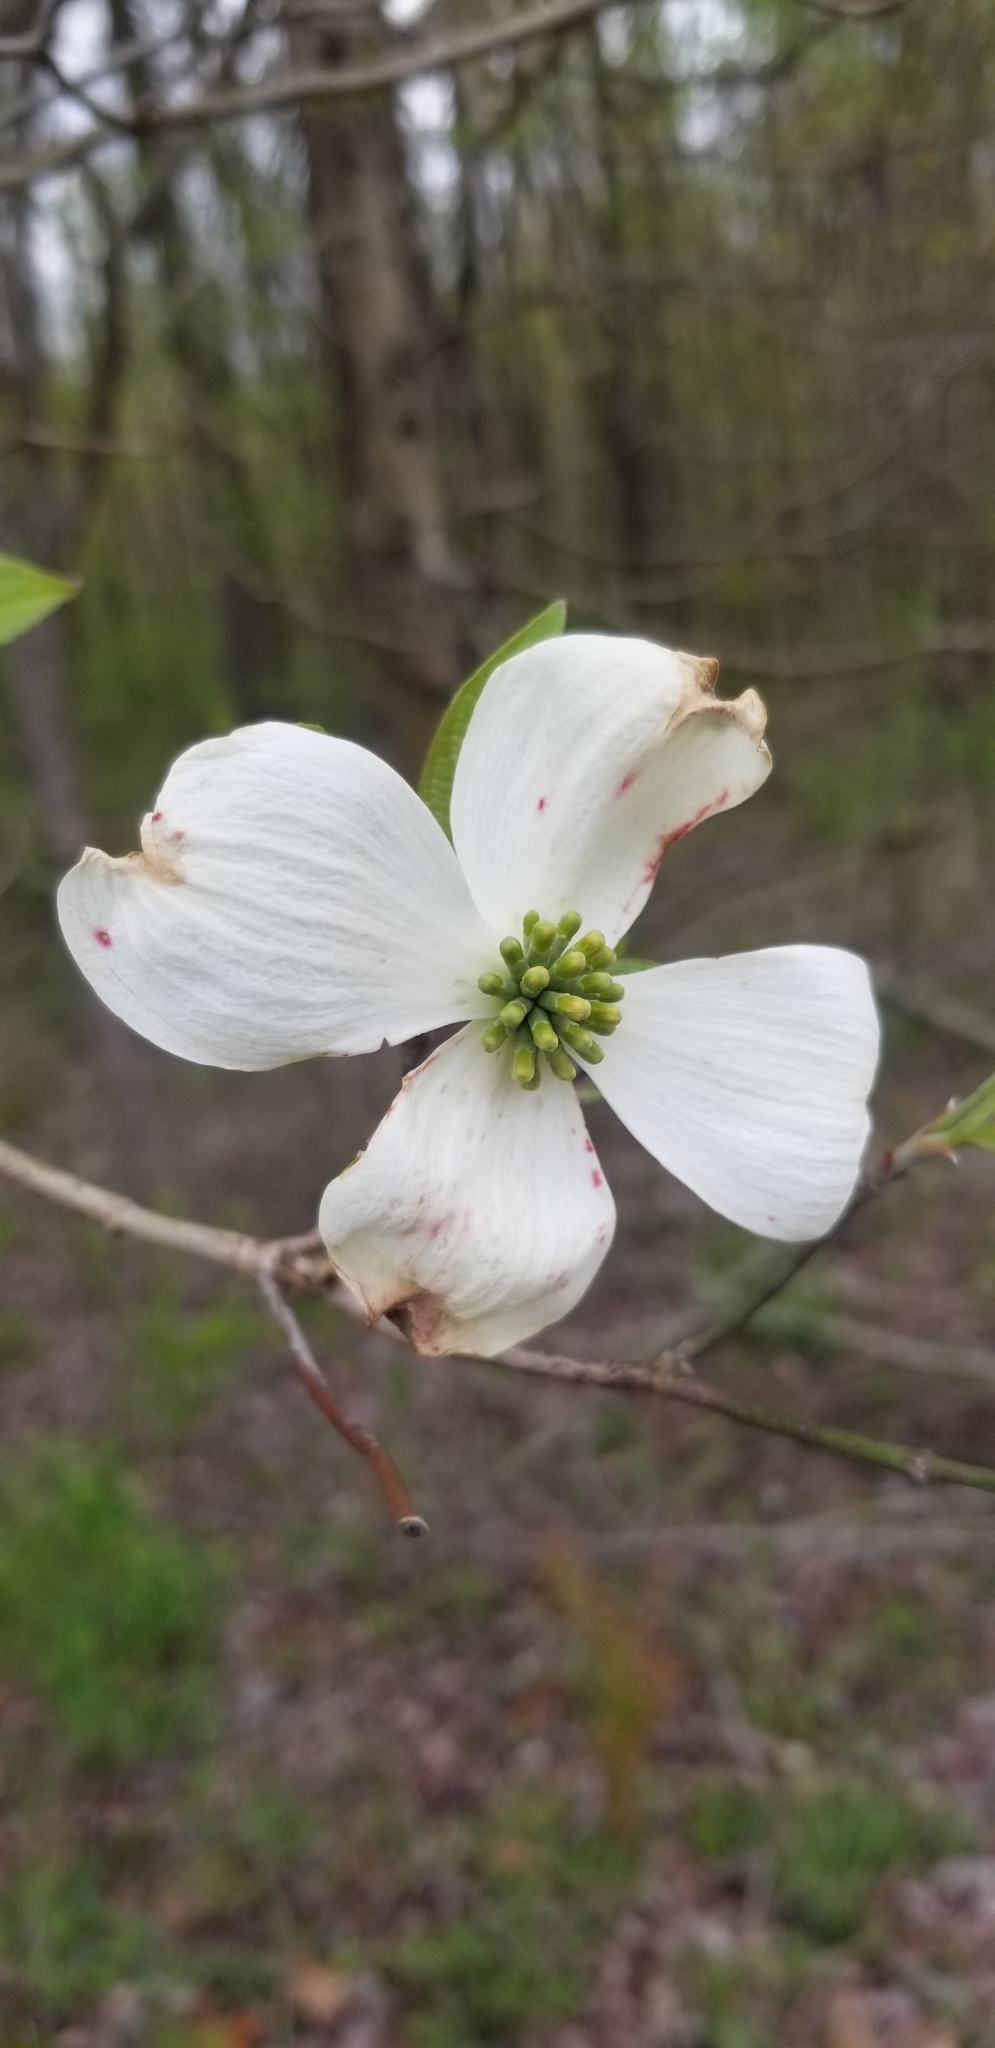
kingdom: Plantae
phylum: Tracheophyta
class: Magnoliopsida
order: Cornales
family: Cornaceae
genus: Cornus
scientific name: Cornus florida
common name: Flowering dogwood
